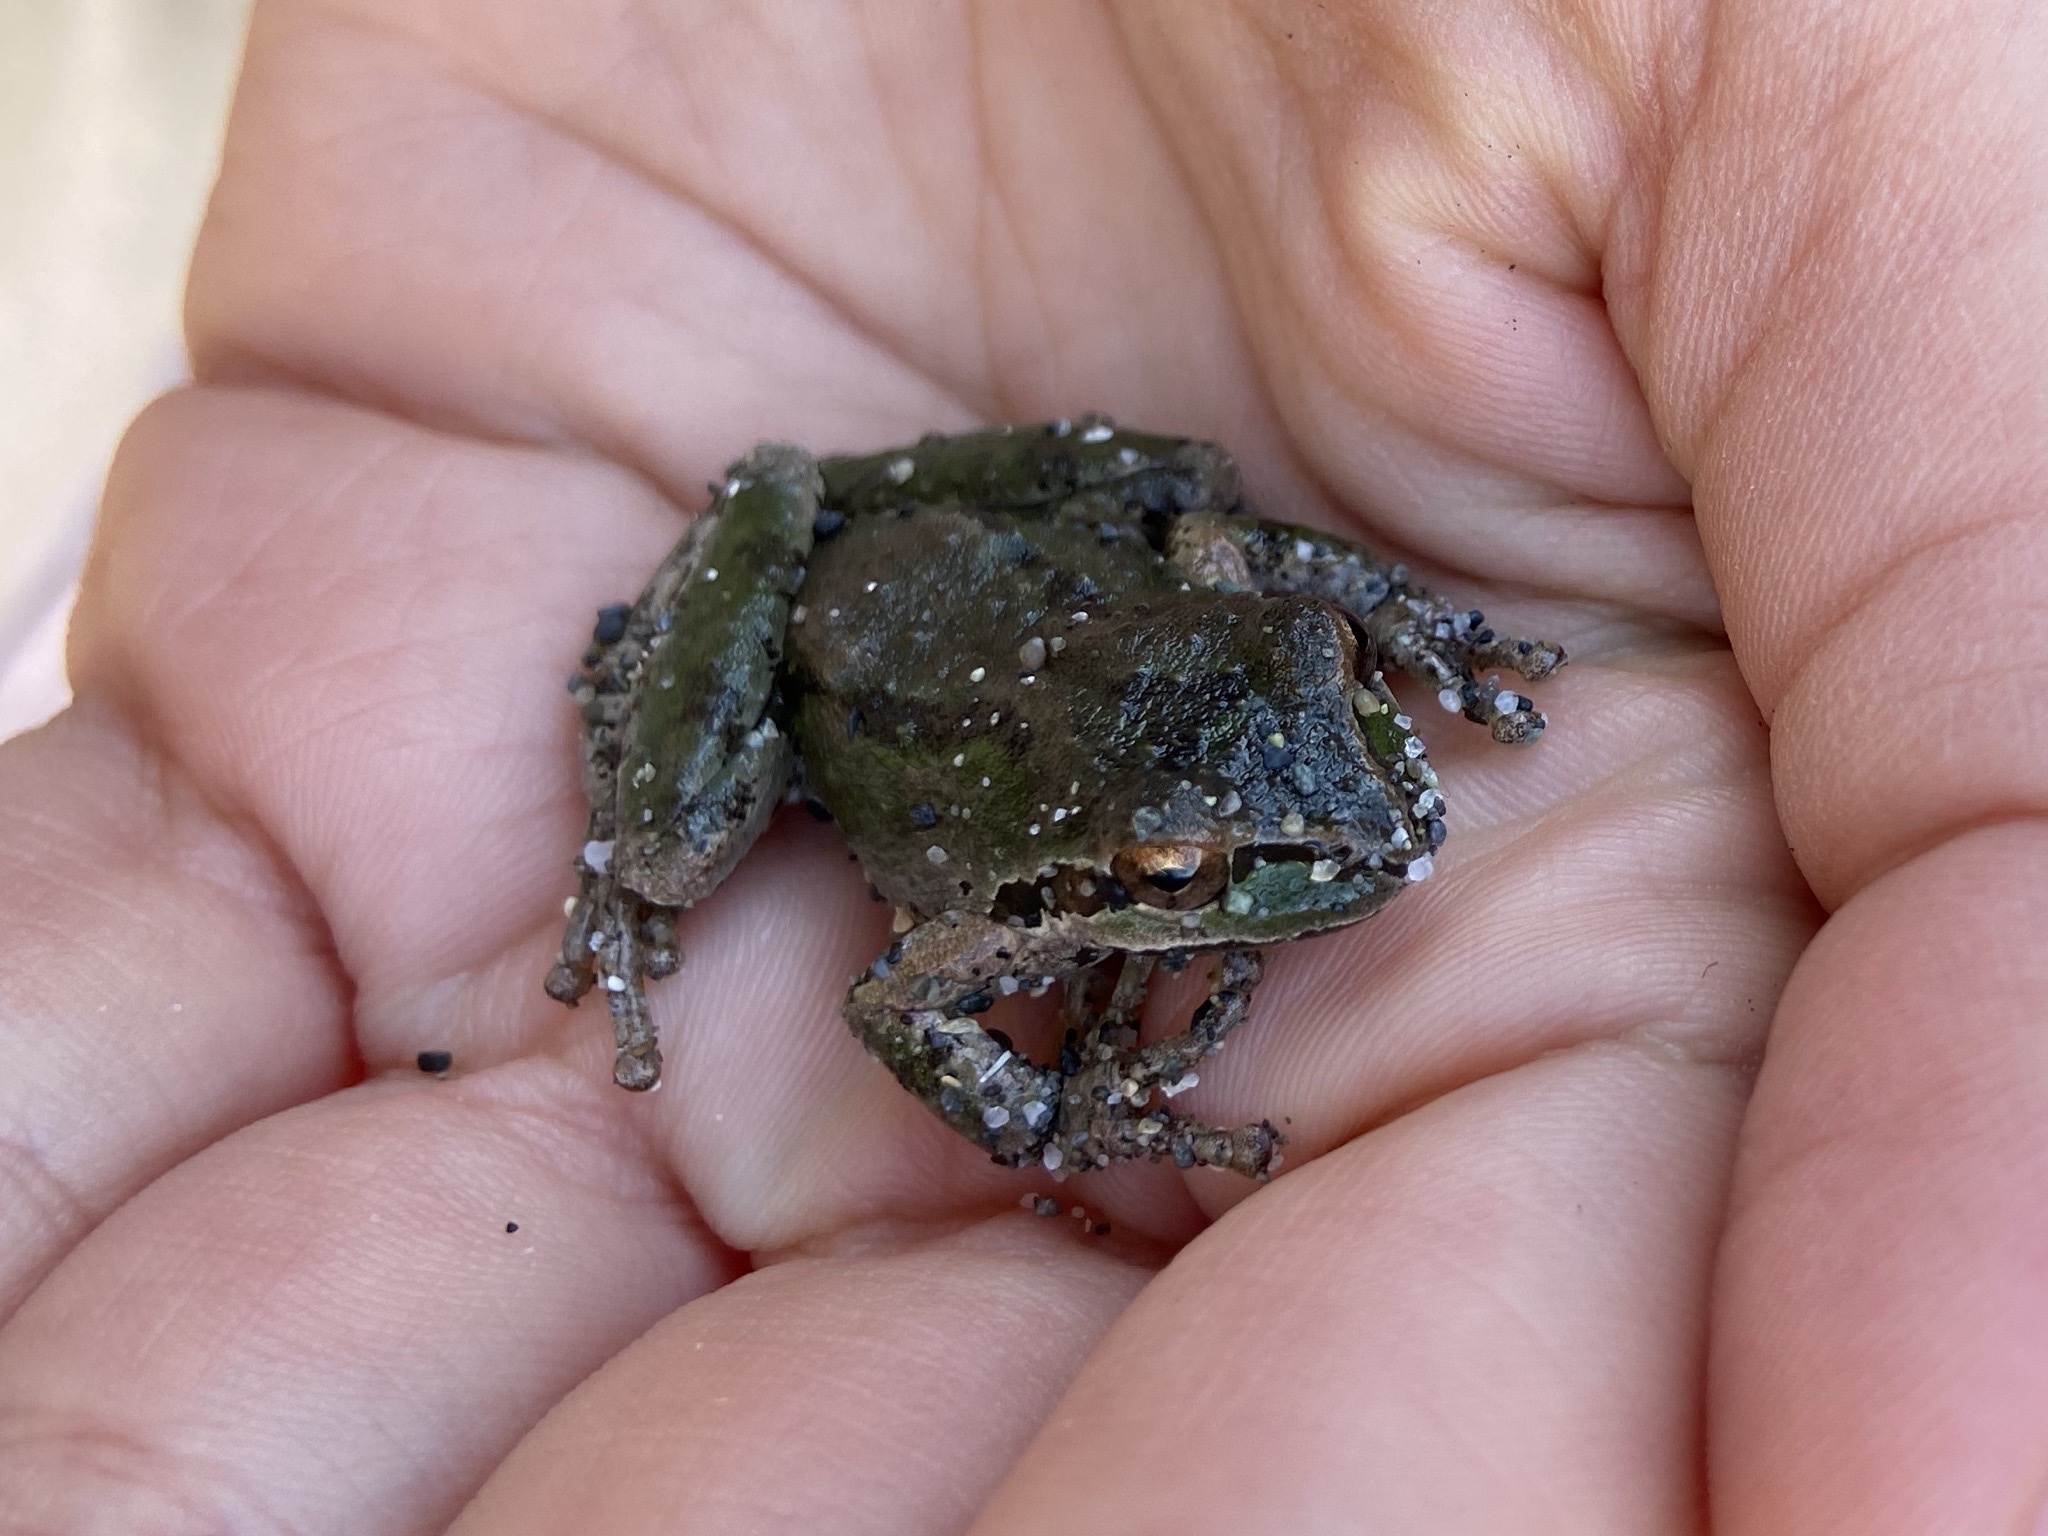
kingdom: Animalia
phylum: Chordata
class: Amphibia
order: Anura
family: Hylidae
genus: Pseudacris
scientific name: Pseudacris regilla
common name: Pacific chorus frog
